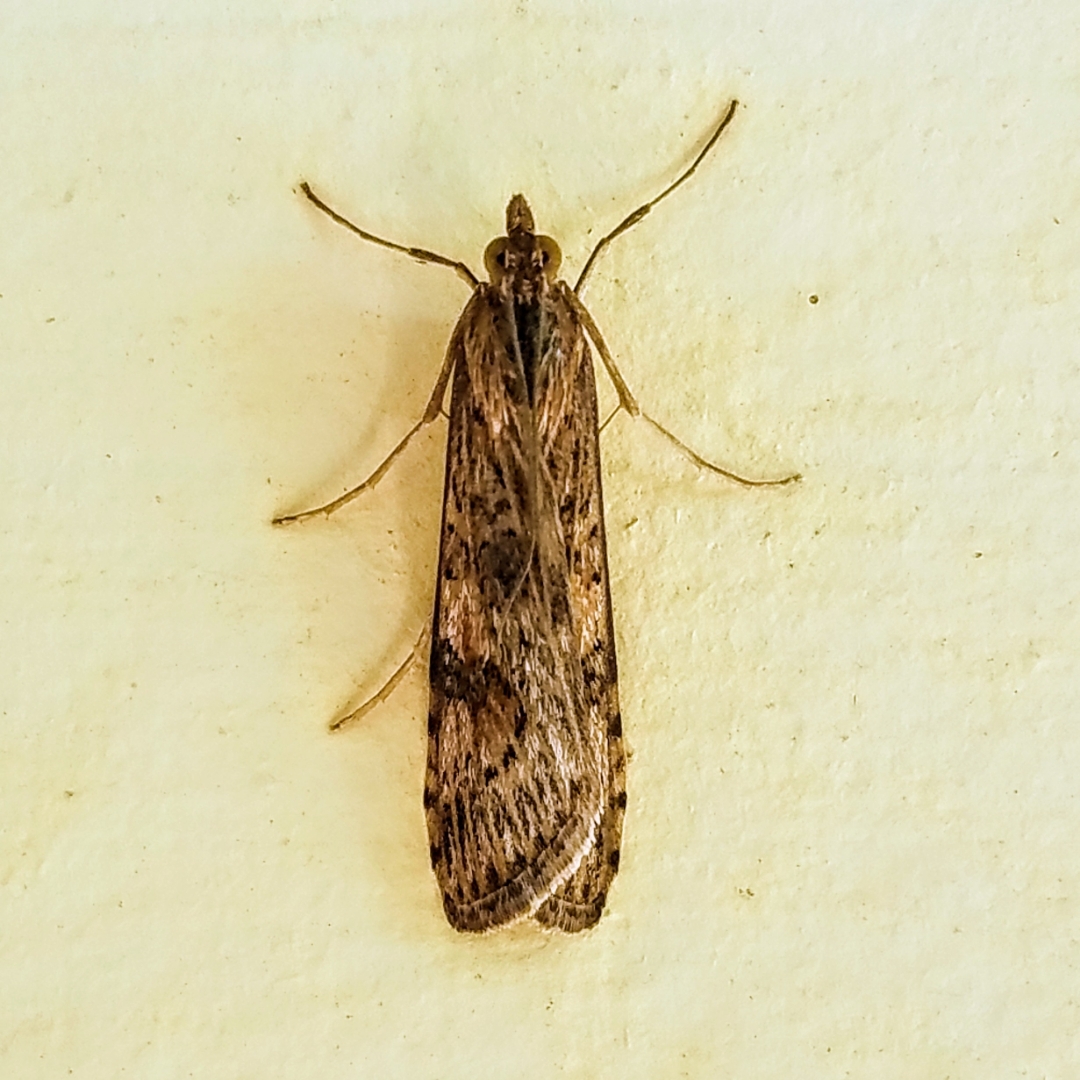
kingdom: Animalia
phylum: Arthropoda
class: Insecta
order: Lepidoptera
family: Crambidae
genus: Nomophila
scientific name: Nomophila nearctica
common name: American rush veneer
